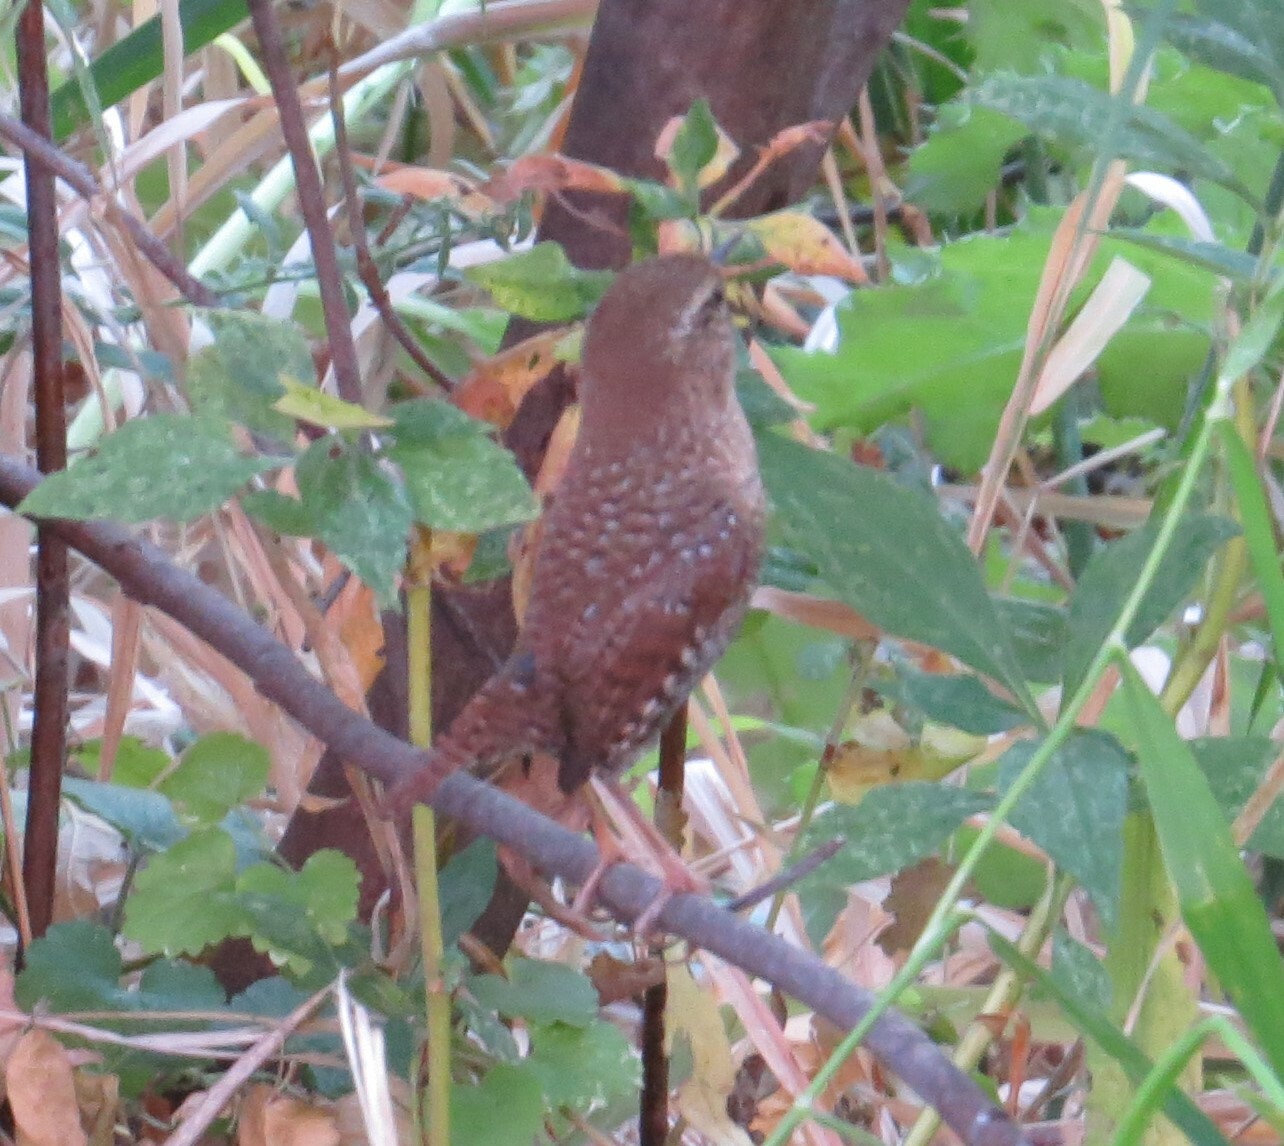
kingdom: Animalia
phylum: Chordata
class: Aves
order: Passeriformes
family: Troglodytidae
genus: Troglodytes
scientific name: Troglodytes hiemalis
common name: Winter wren
